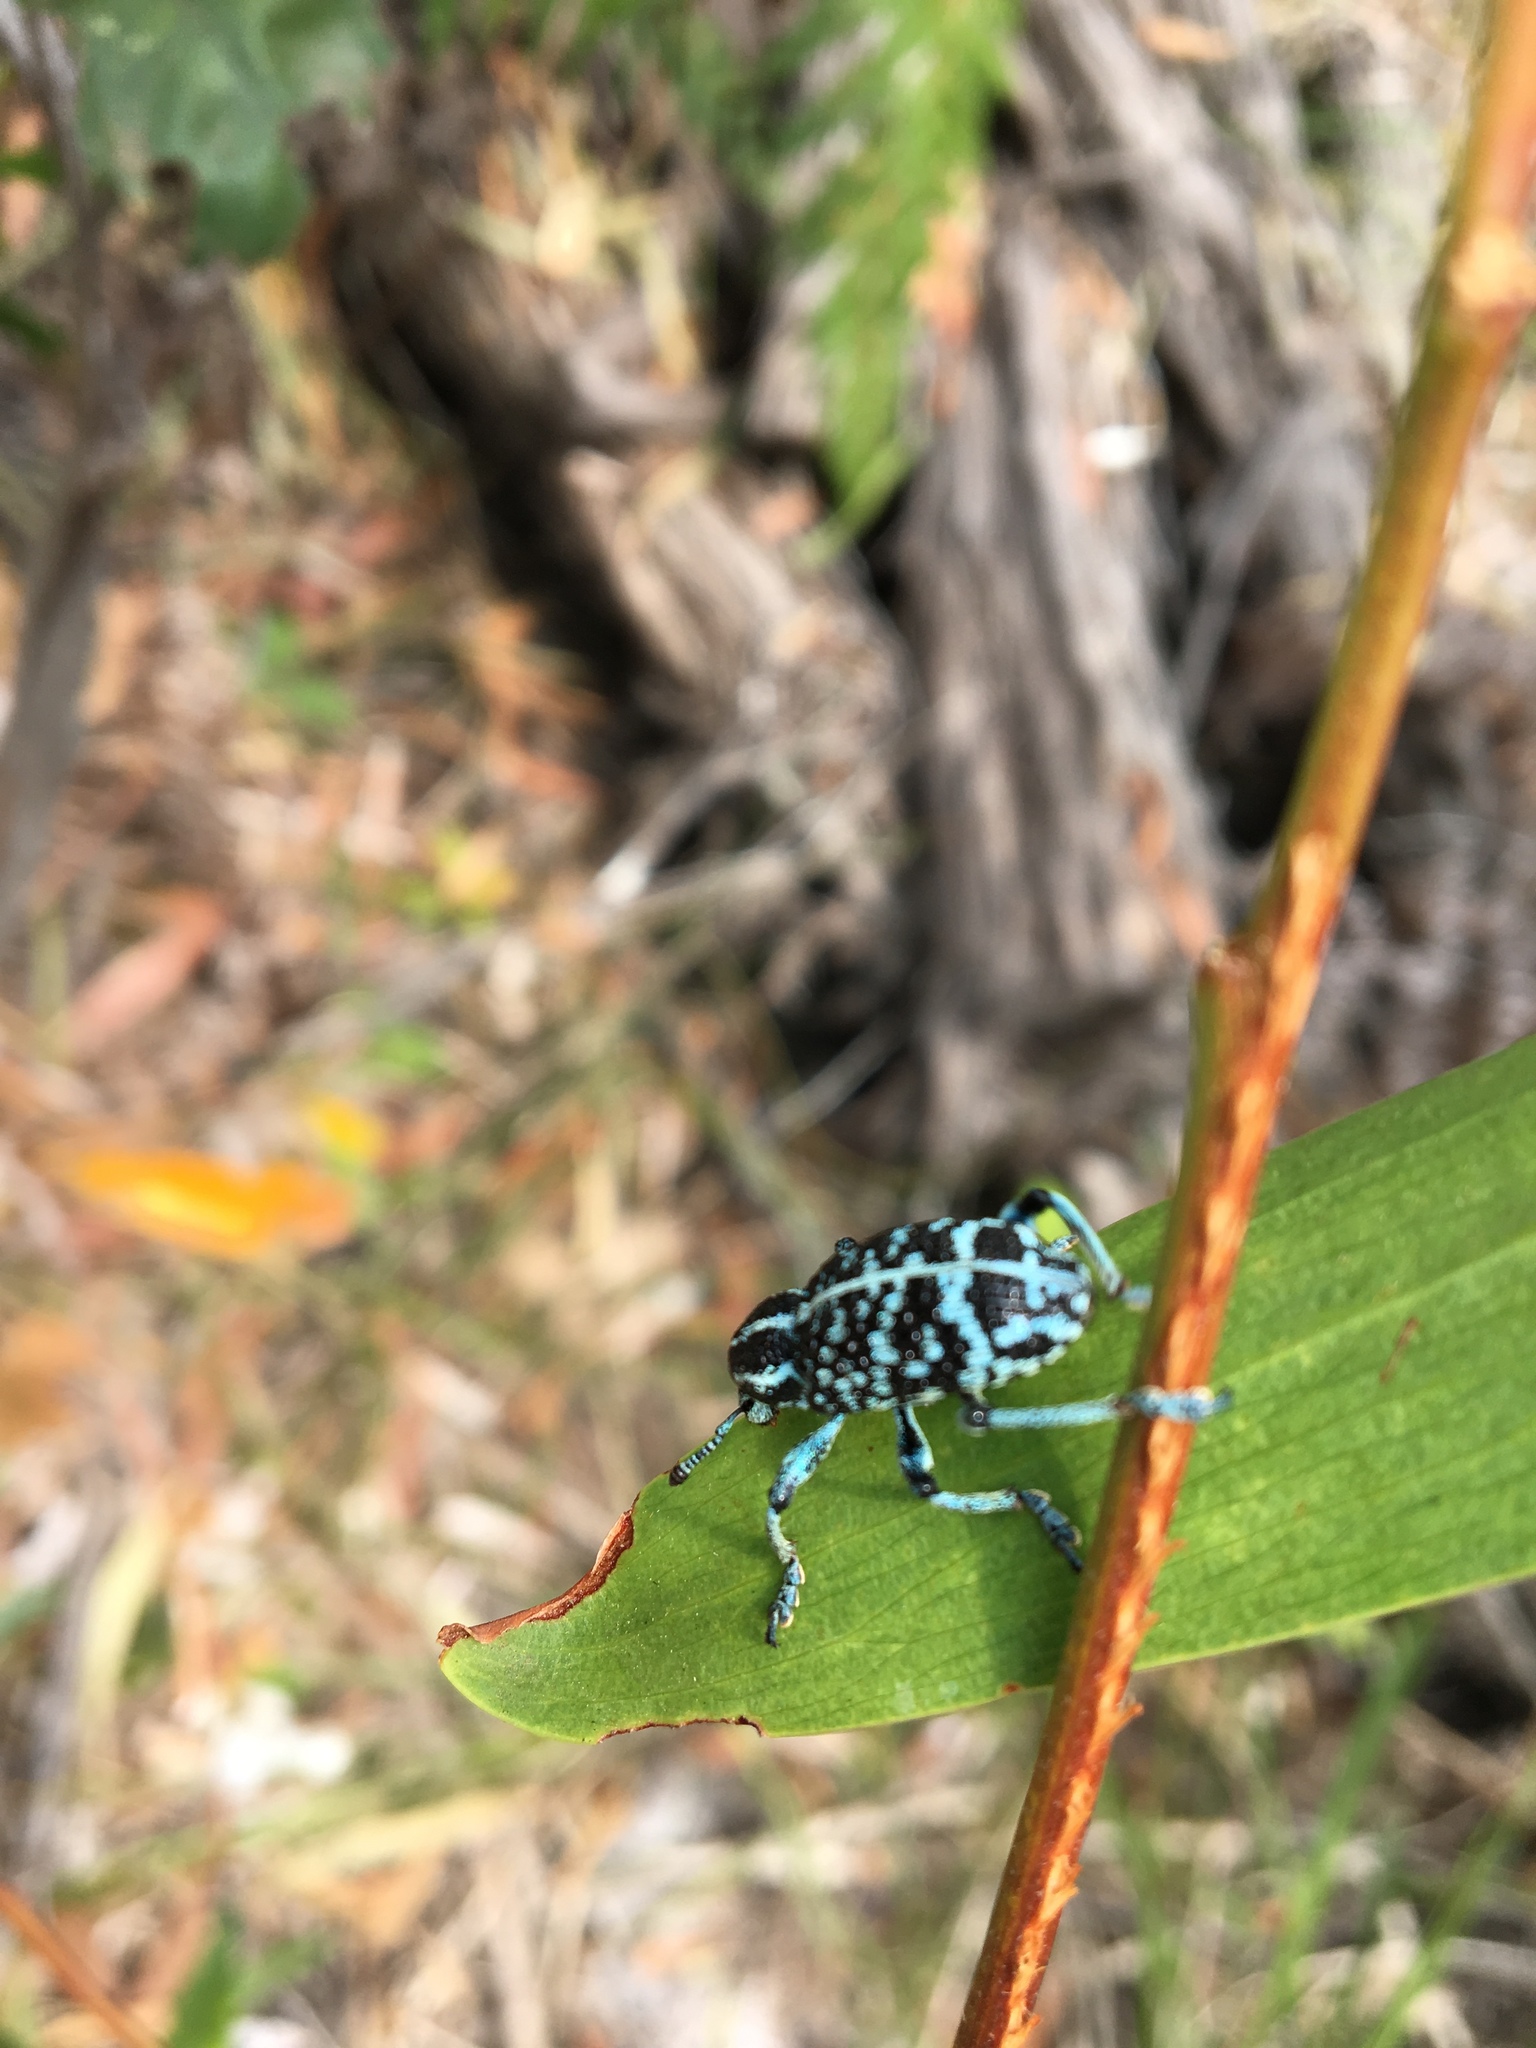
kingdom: Animalia
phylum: Arthropoda
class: Insecta
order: Coleoptera
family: Curculionidae
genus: Chrysolopus
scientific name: Chrysolopus spectabilis
